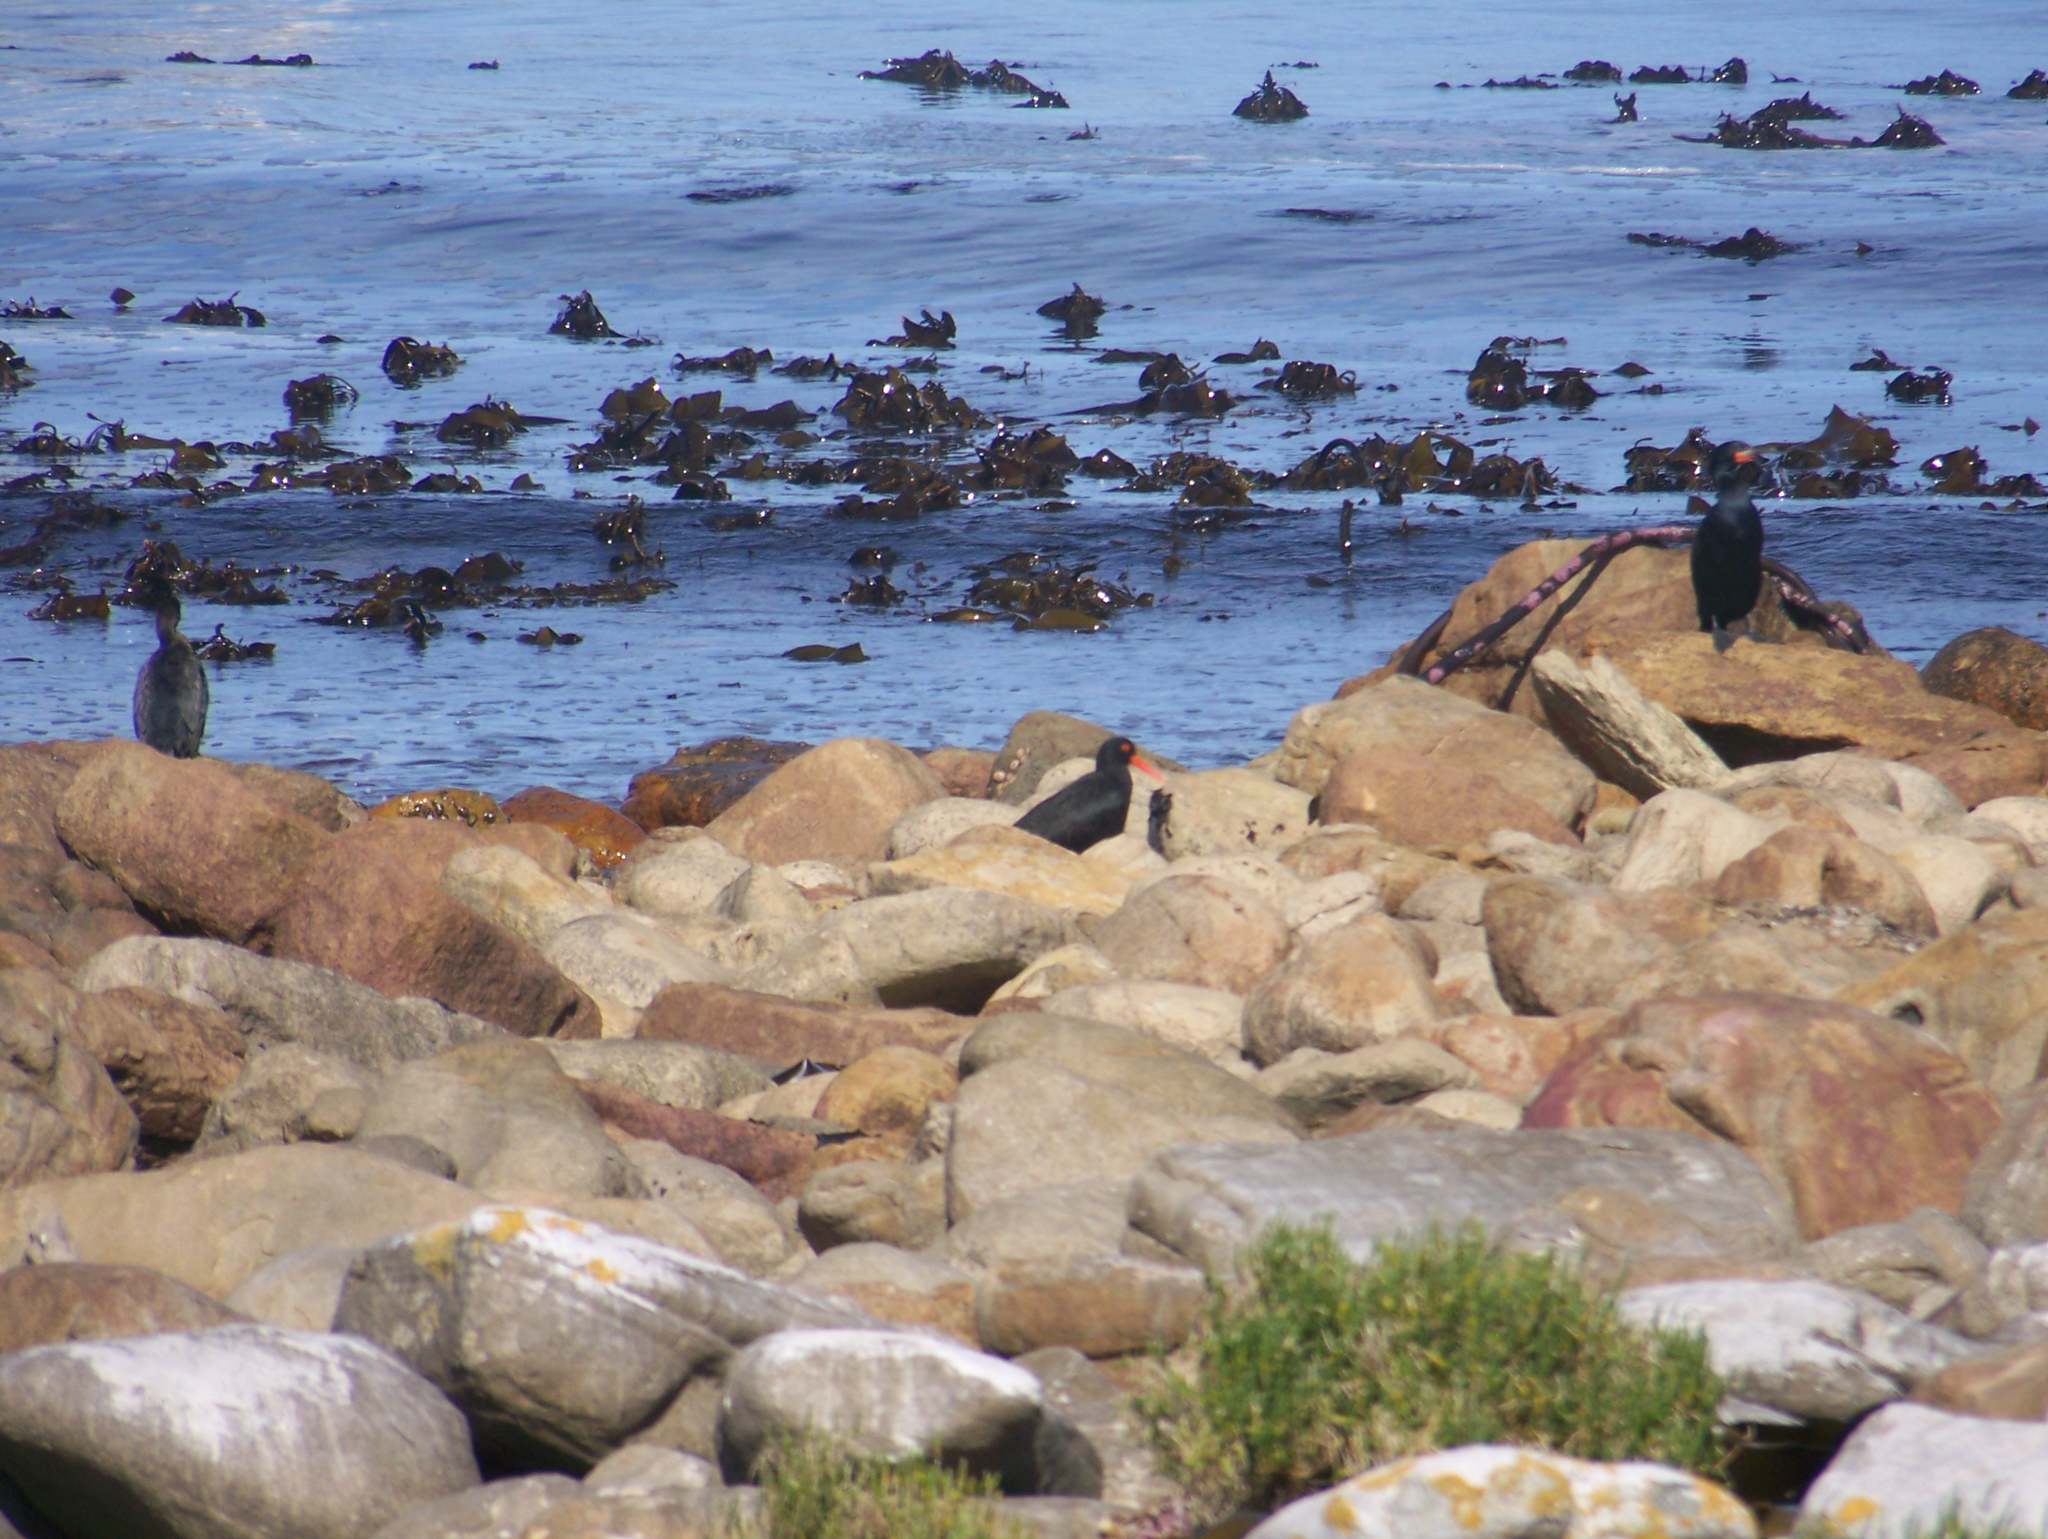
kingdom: Animalia
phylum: Chordata
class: Aves
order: Charadriiformes
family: Haematopodidae
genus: Haematopus
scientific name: Haematopus moquini
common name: African oystercatcher
